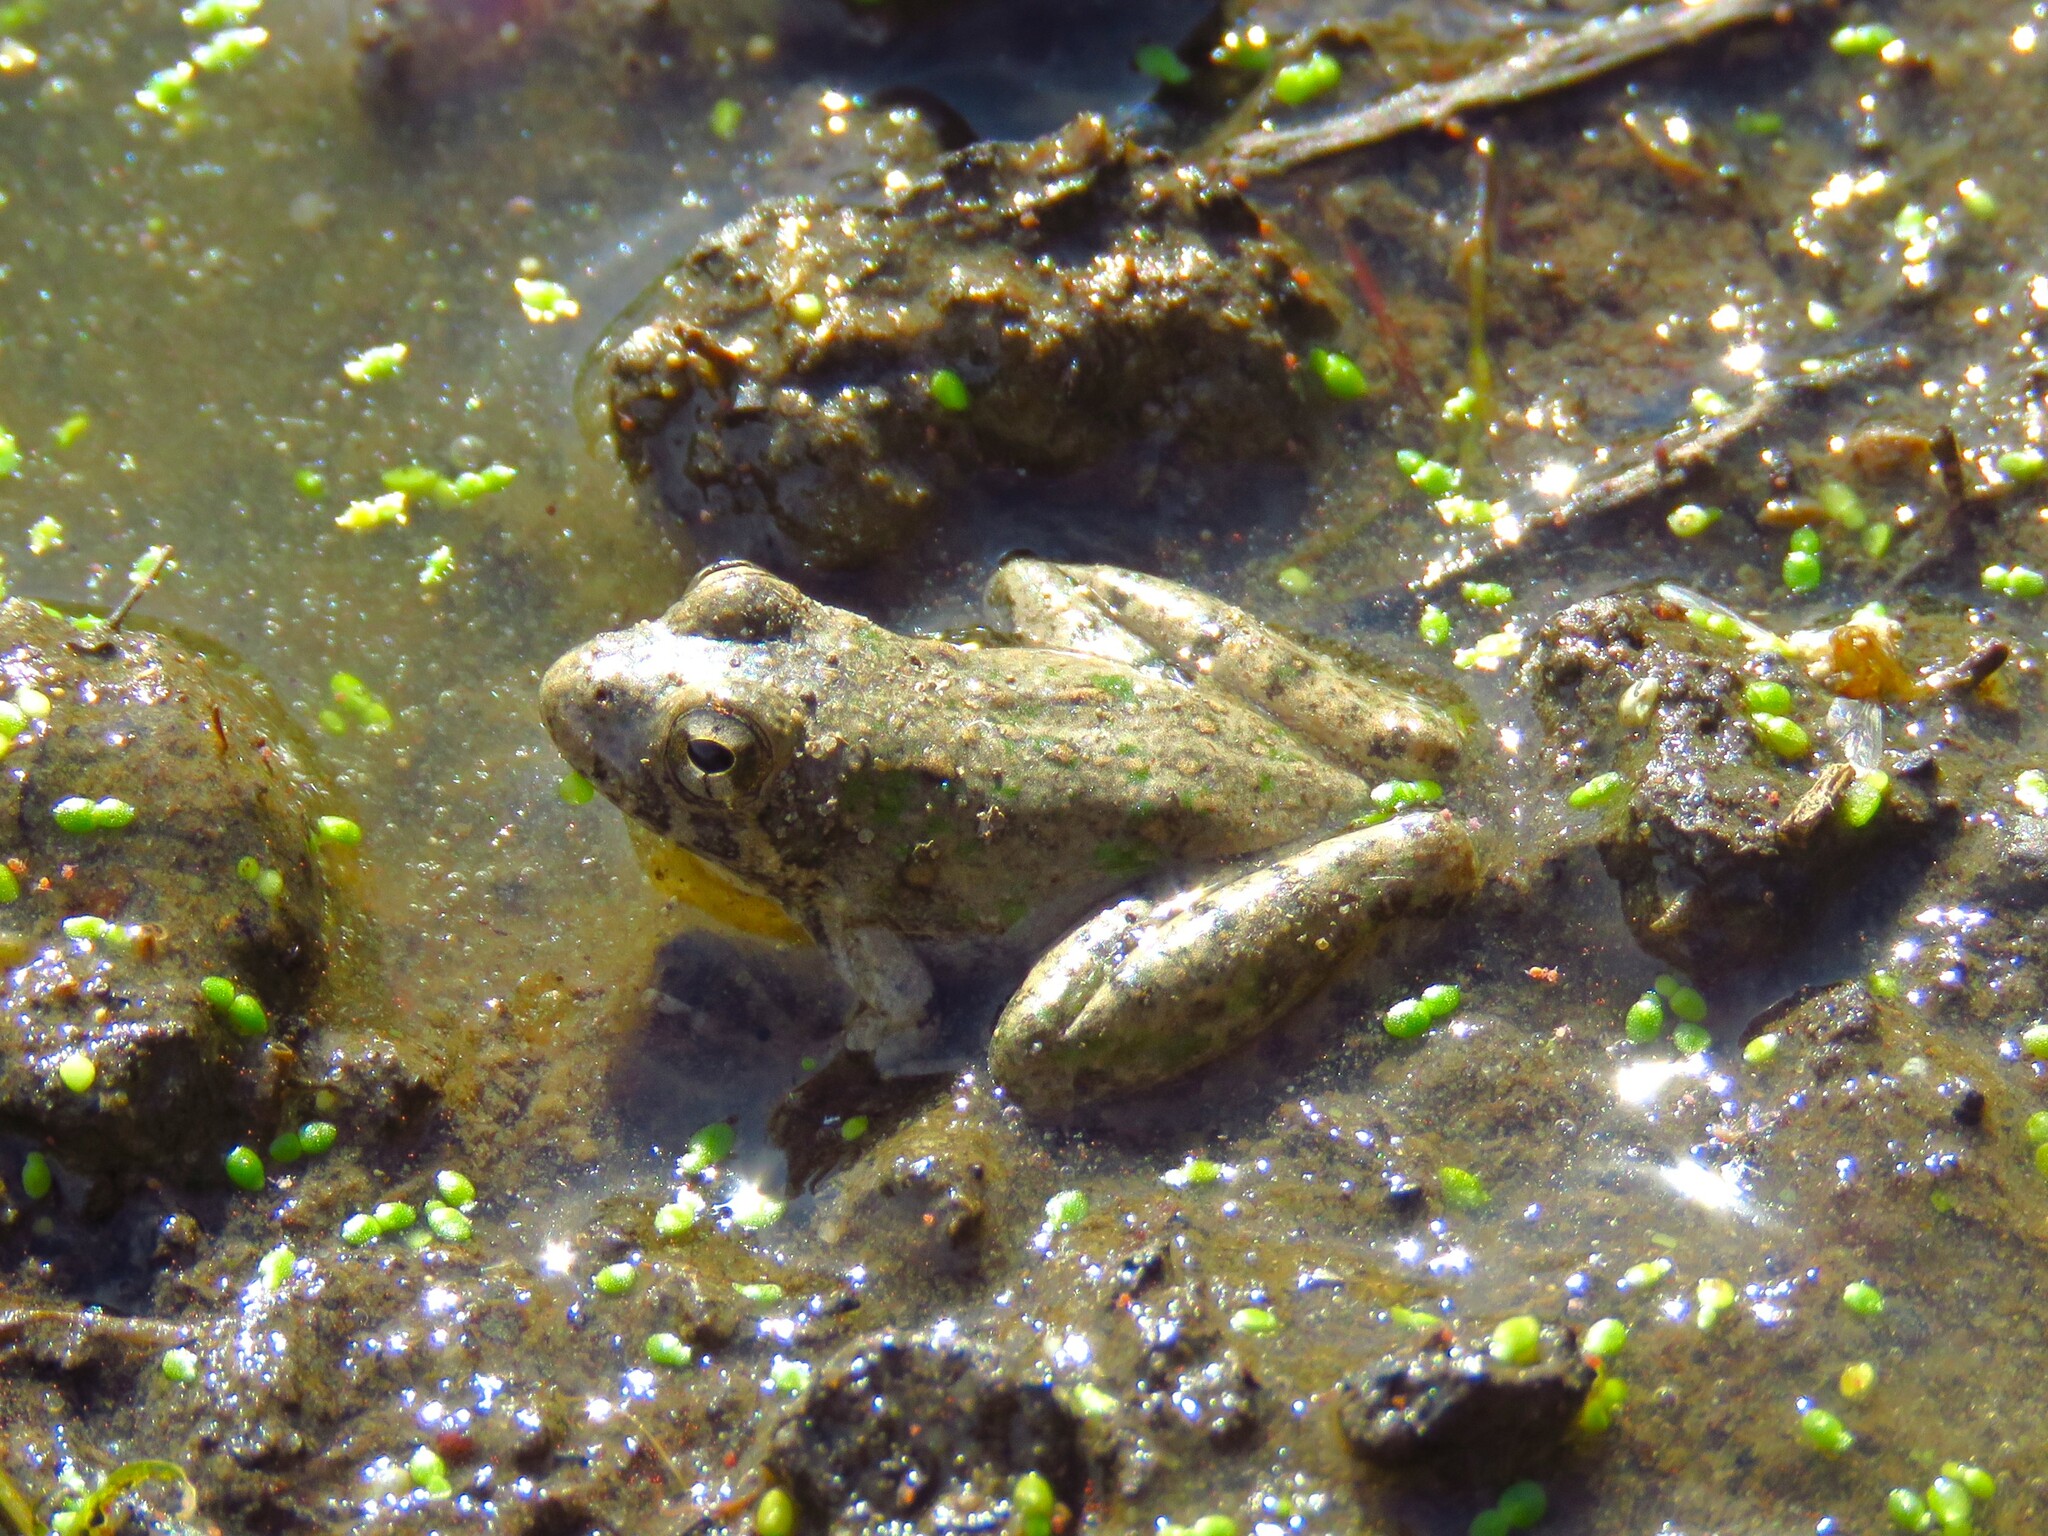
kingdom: Animalia
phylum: Chordata
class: Amphibia
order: Anura
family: Hylidae
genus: Acris
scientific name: Acris blanchardi
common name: Blanchard's cricket frog
